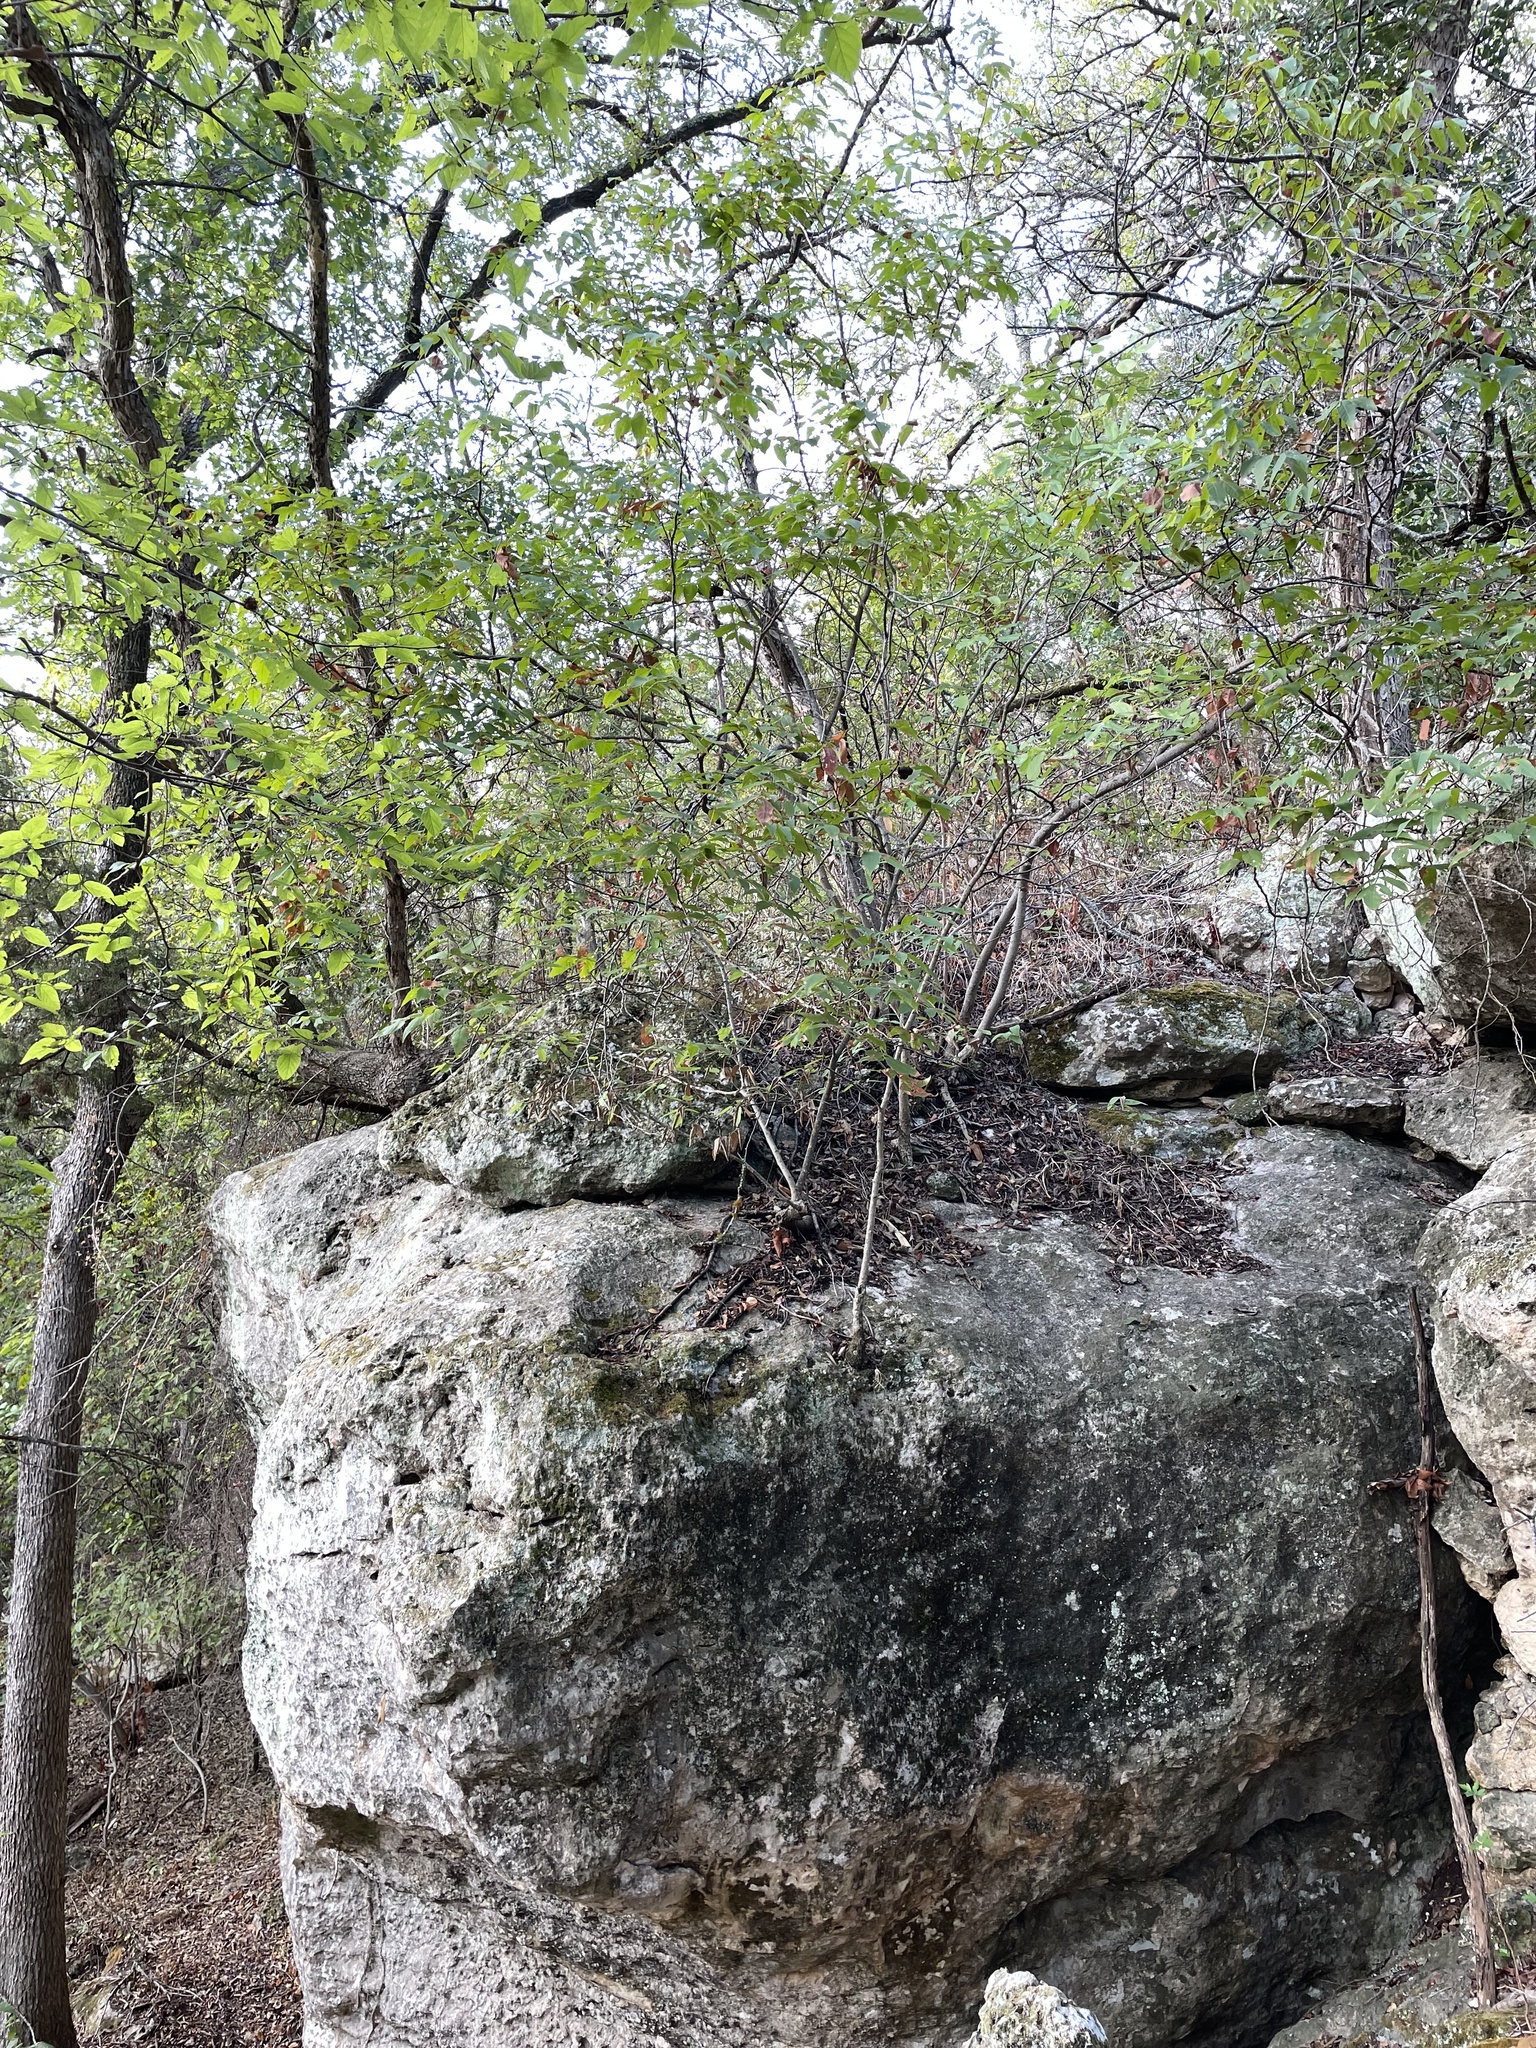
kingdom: Plantae
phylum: Tracheophyta
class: Magnoliopsida
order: Sapindales
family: Sapindaceae
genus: Ungnadia
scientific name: Ungnadia speciosa
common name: Texas-buckeye
